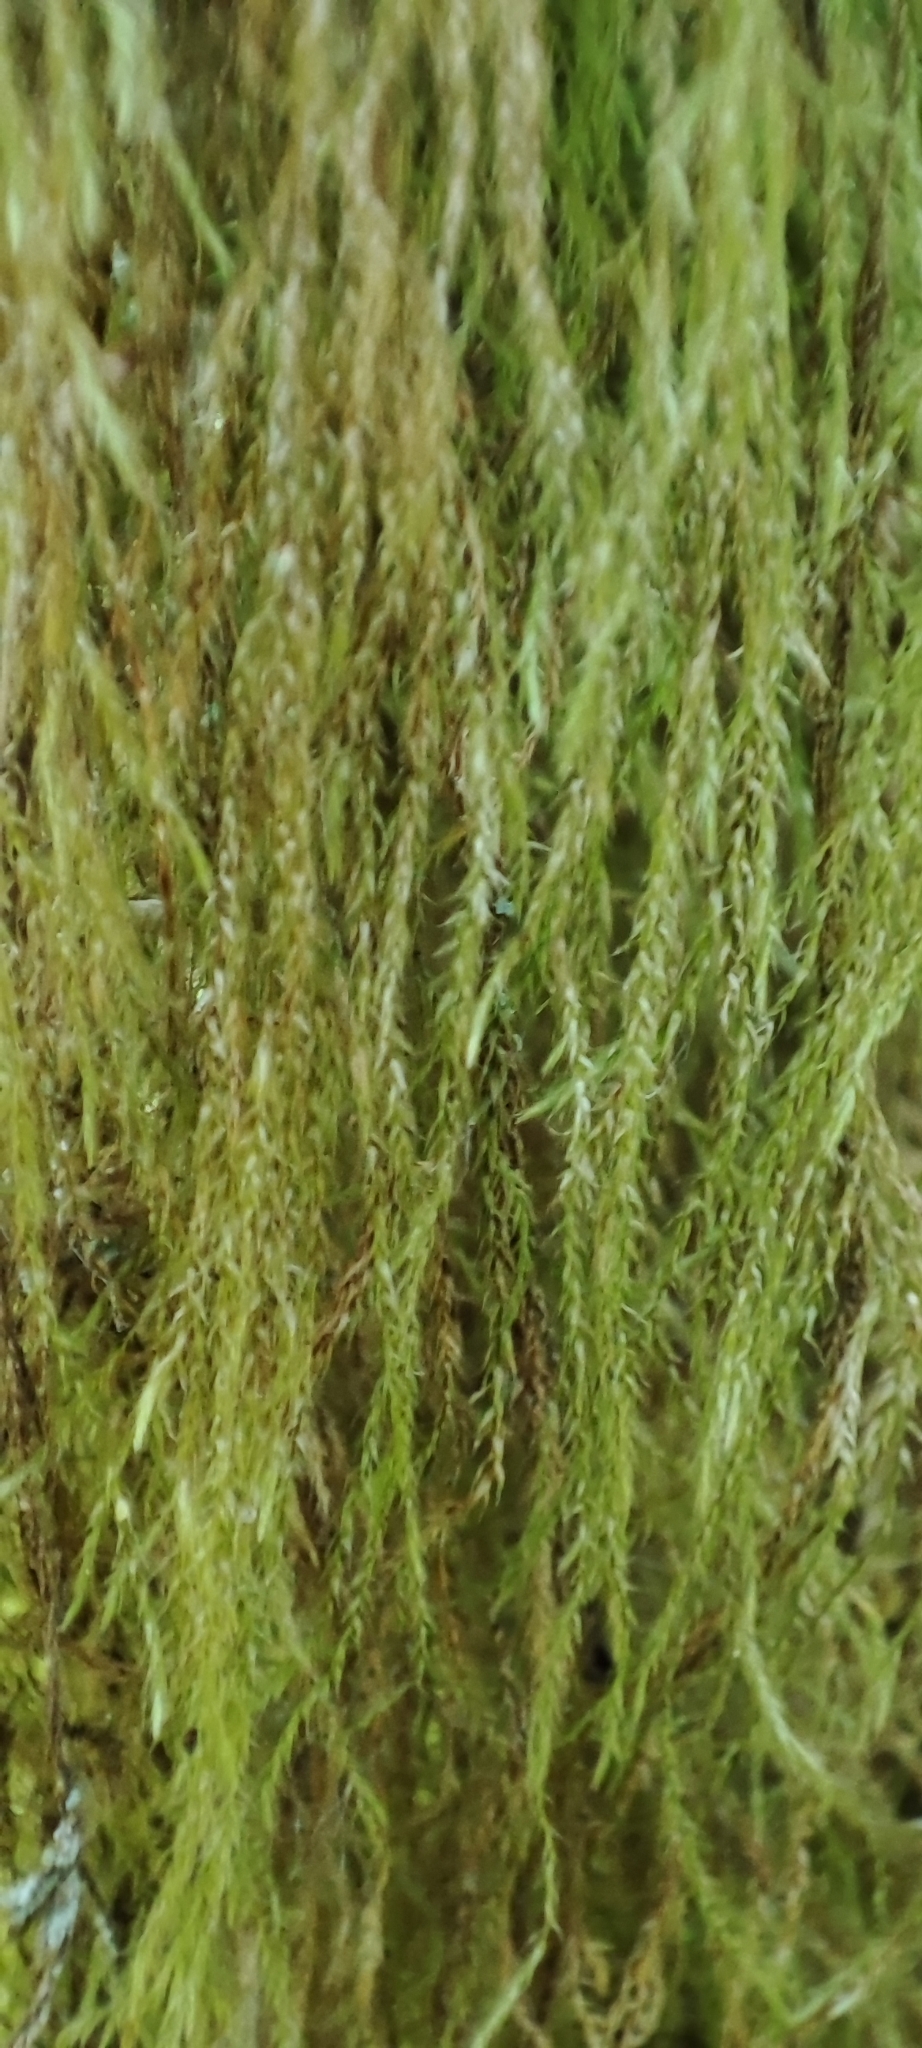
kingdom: Plantae
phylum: Bryophyta
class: Bryopsida
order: Hypnales
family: Lembophyllaceae
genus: Pseudisothecium
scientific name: Pseudisothecium stoloniferum
